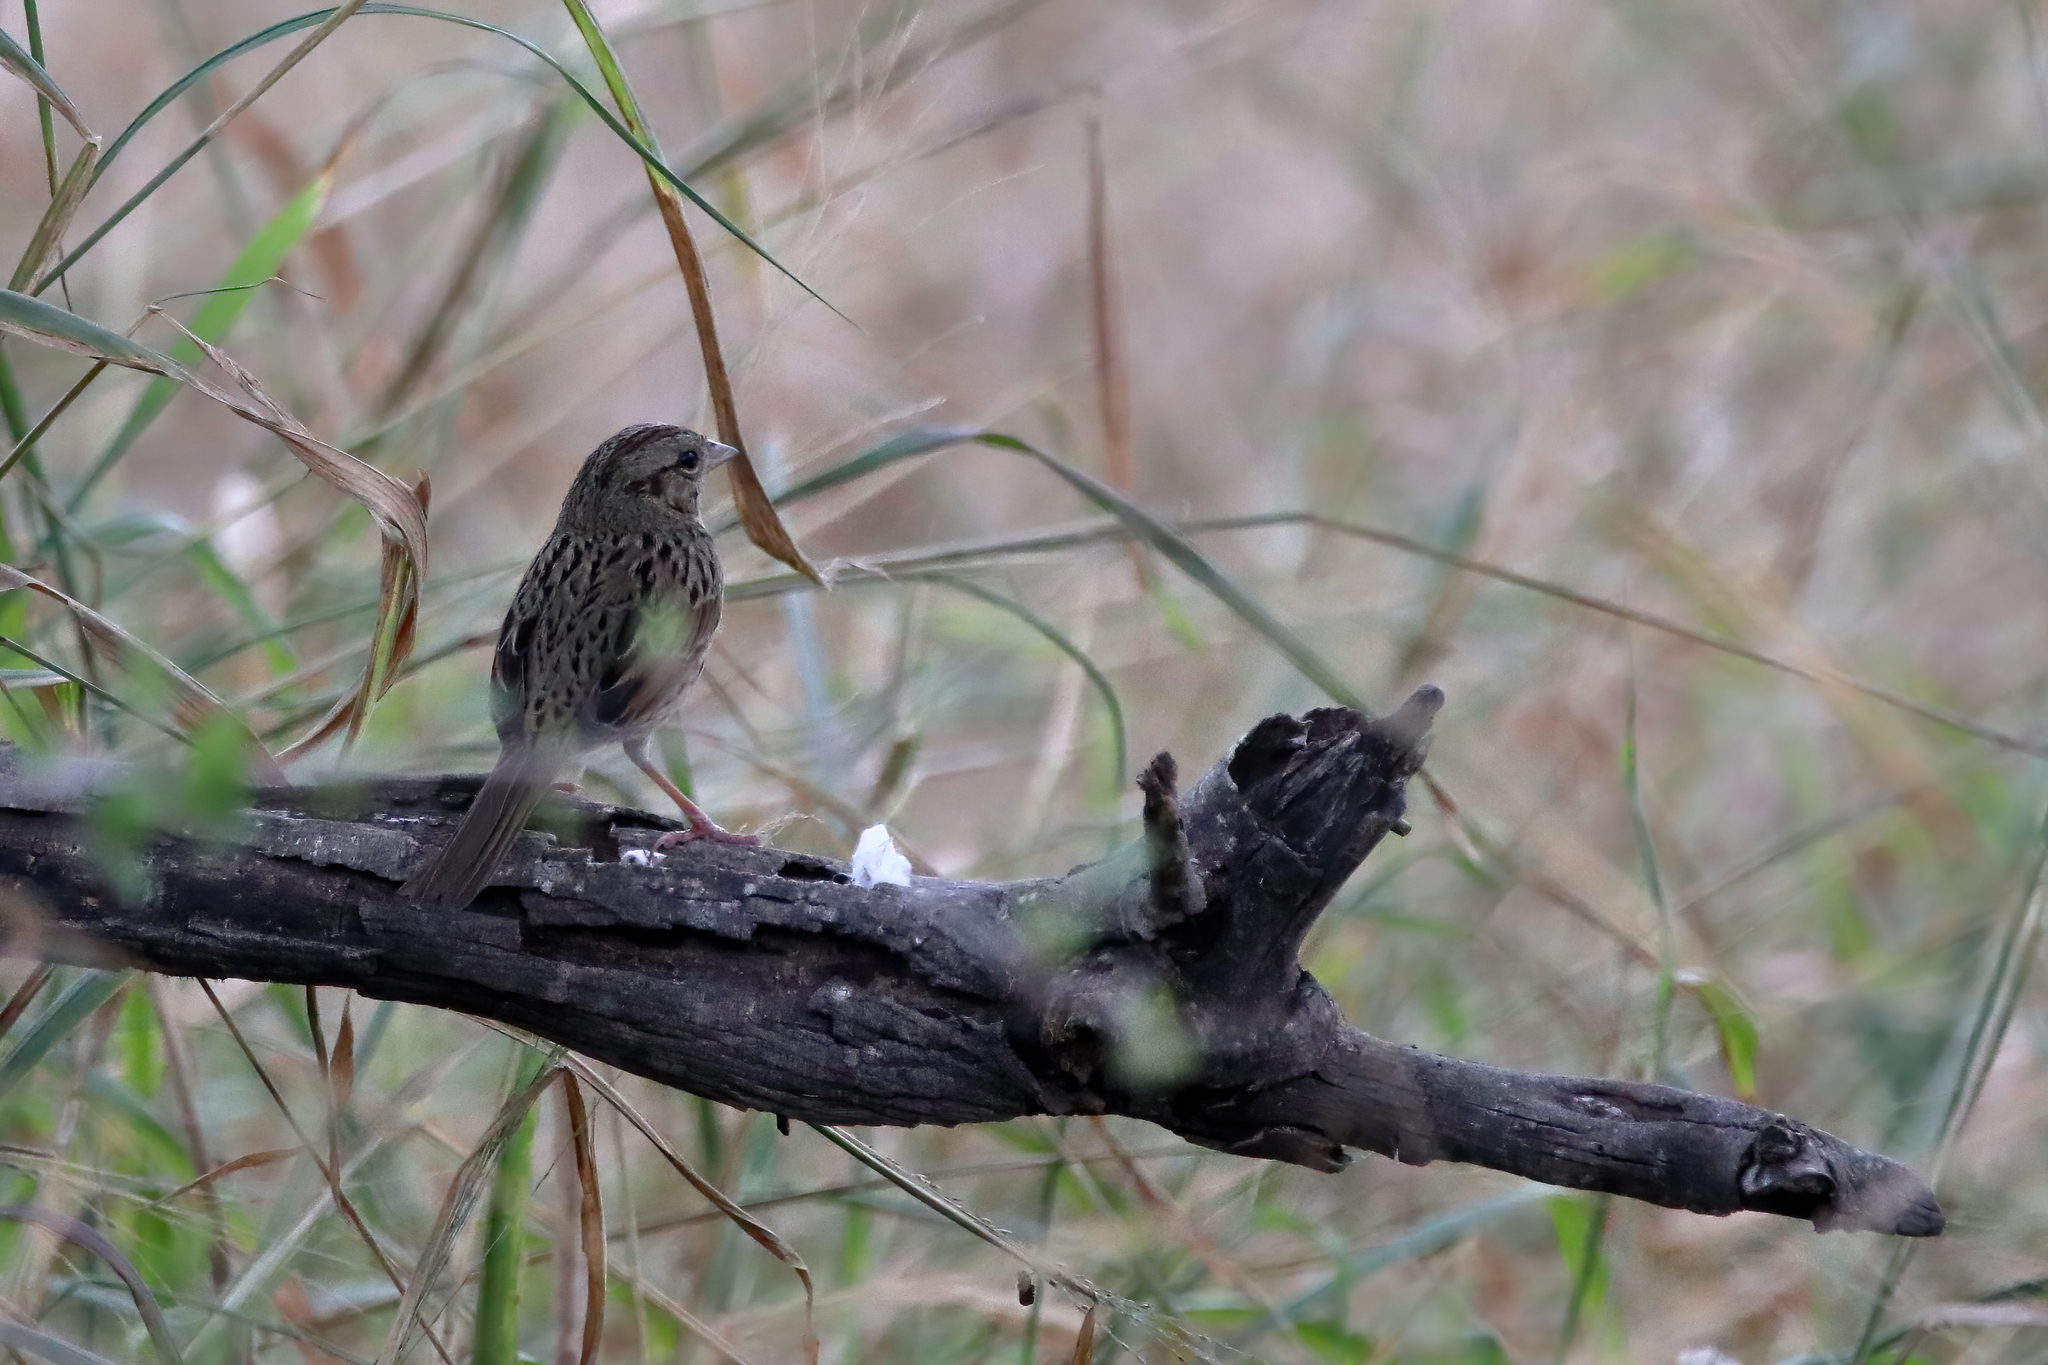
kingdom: Animalia
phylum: Chordata
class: Aves
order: Passeriformes
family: Passerellidae
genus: Melospiza
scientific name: Melospiza lincolnii
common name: Lincoln's sparrow
